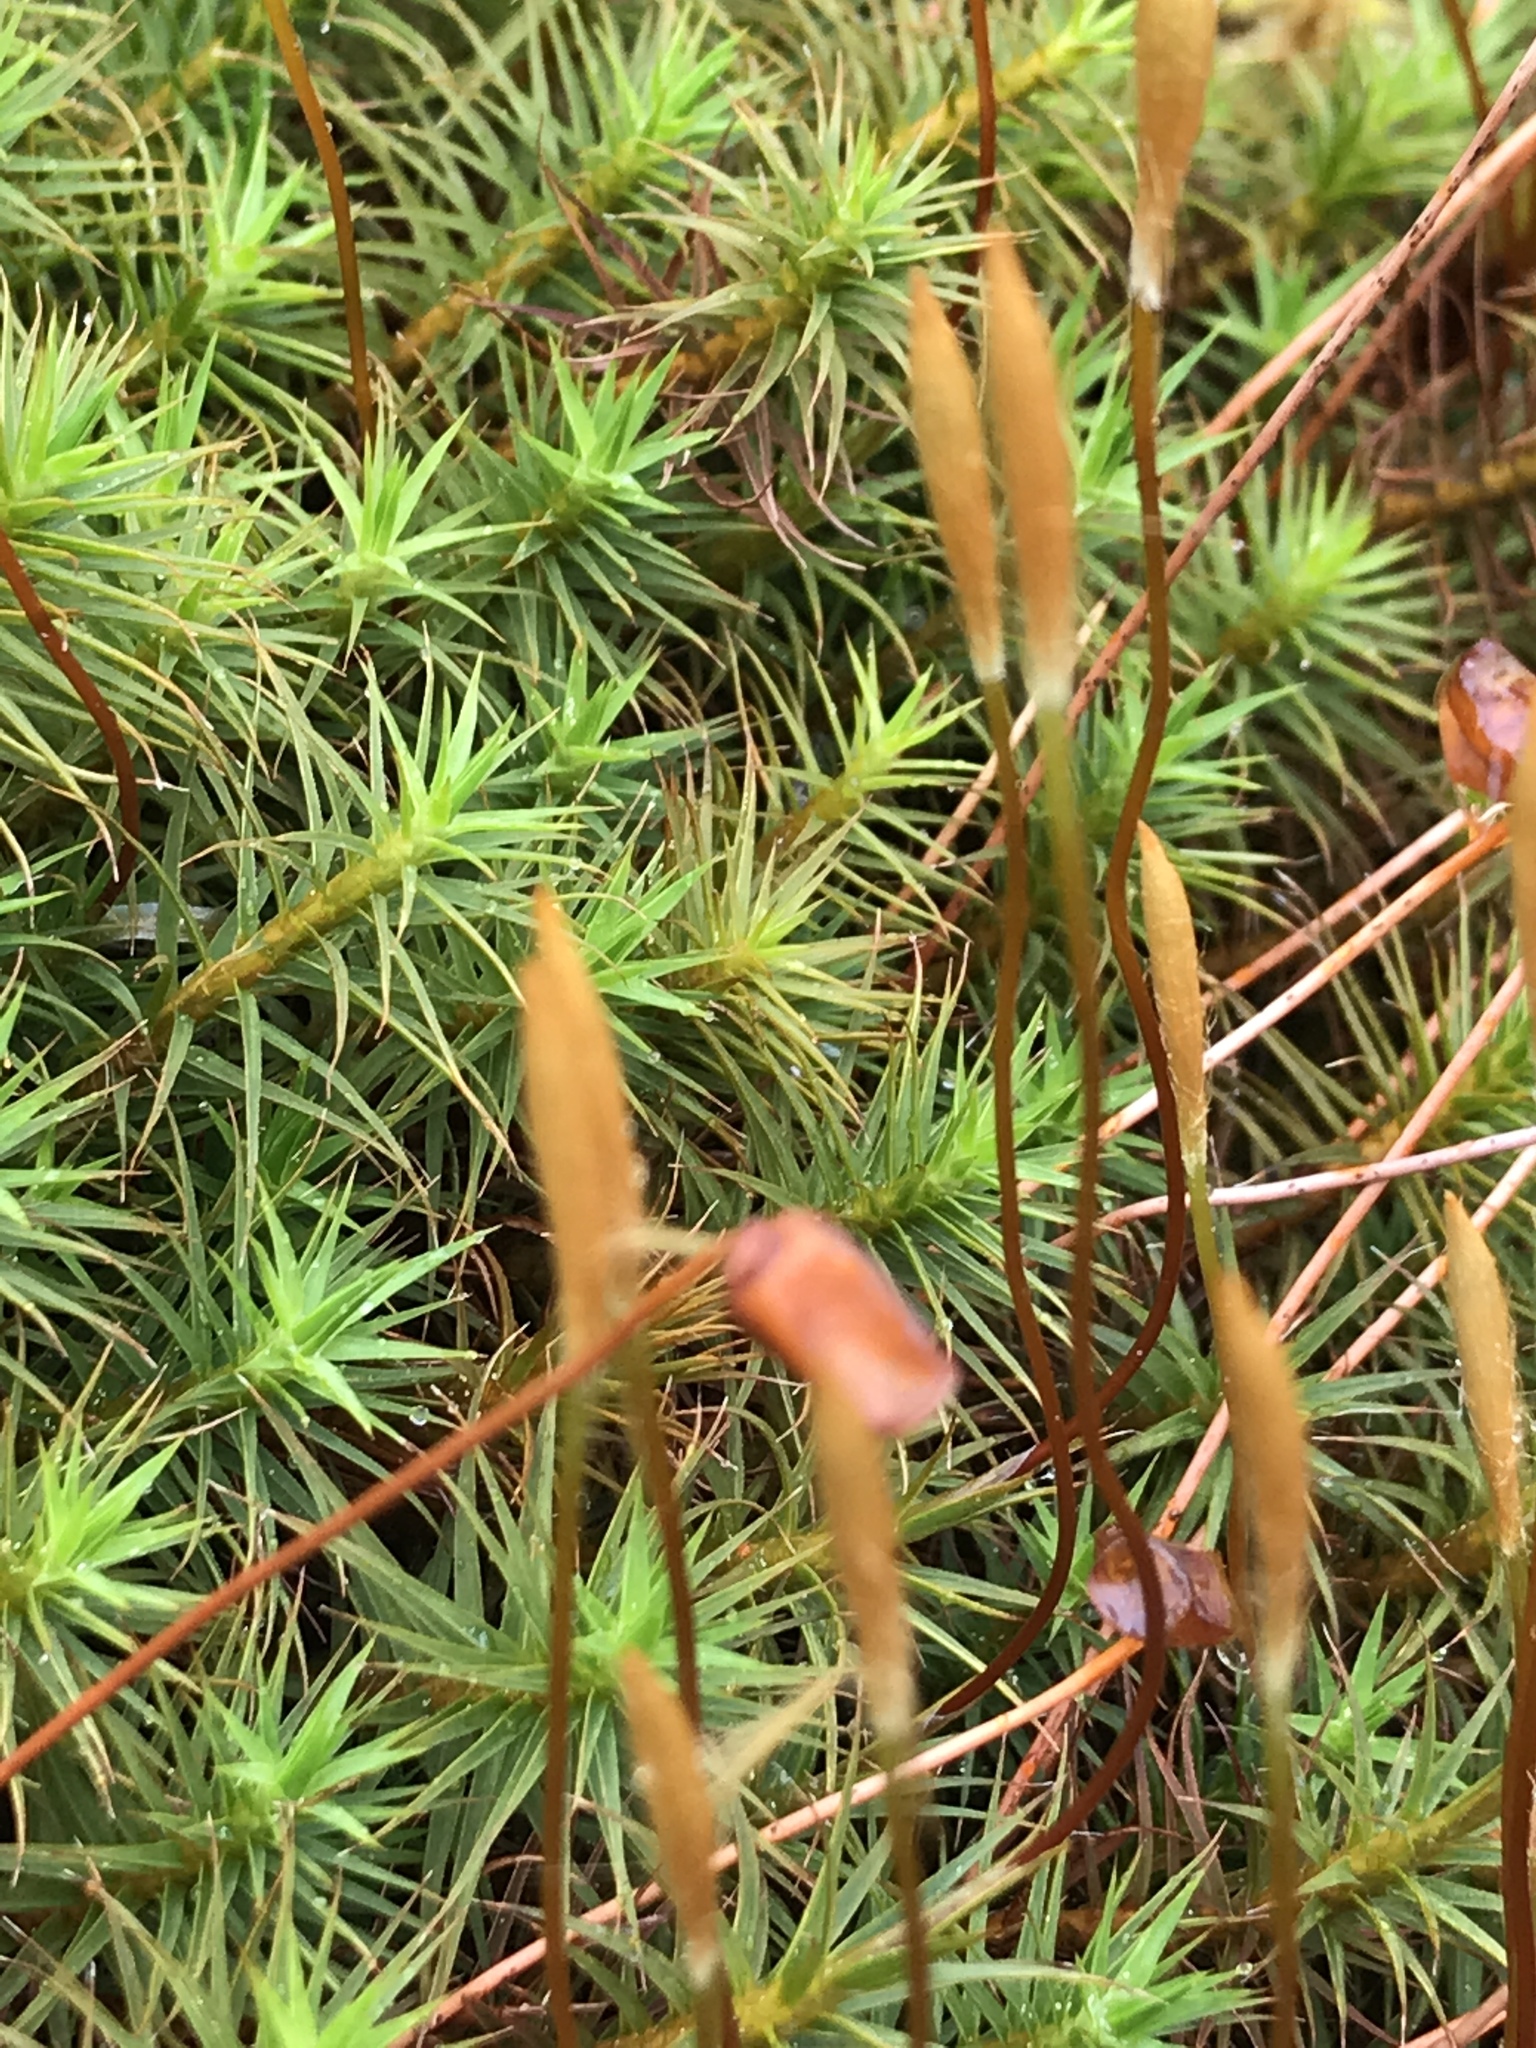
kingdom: Plantae
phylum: Bryophyta
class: Polytrichopsida
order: Polytrichales
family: Polytrichaceae
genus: Polytrichum
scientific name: Polytrichum commune
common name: Common haircap
